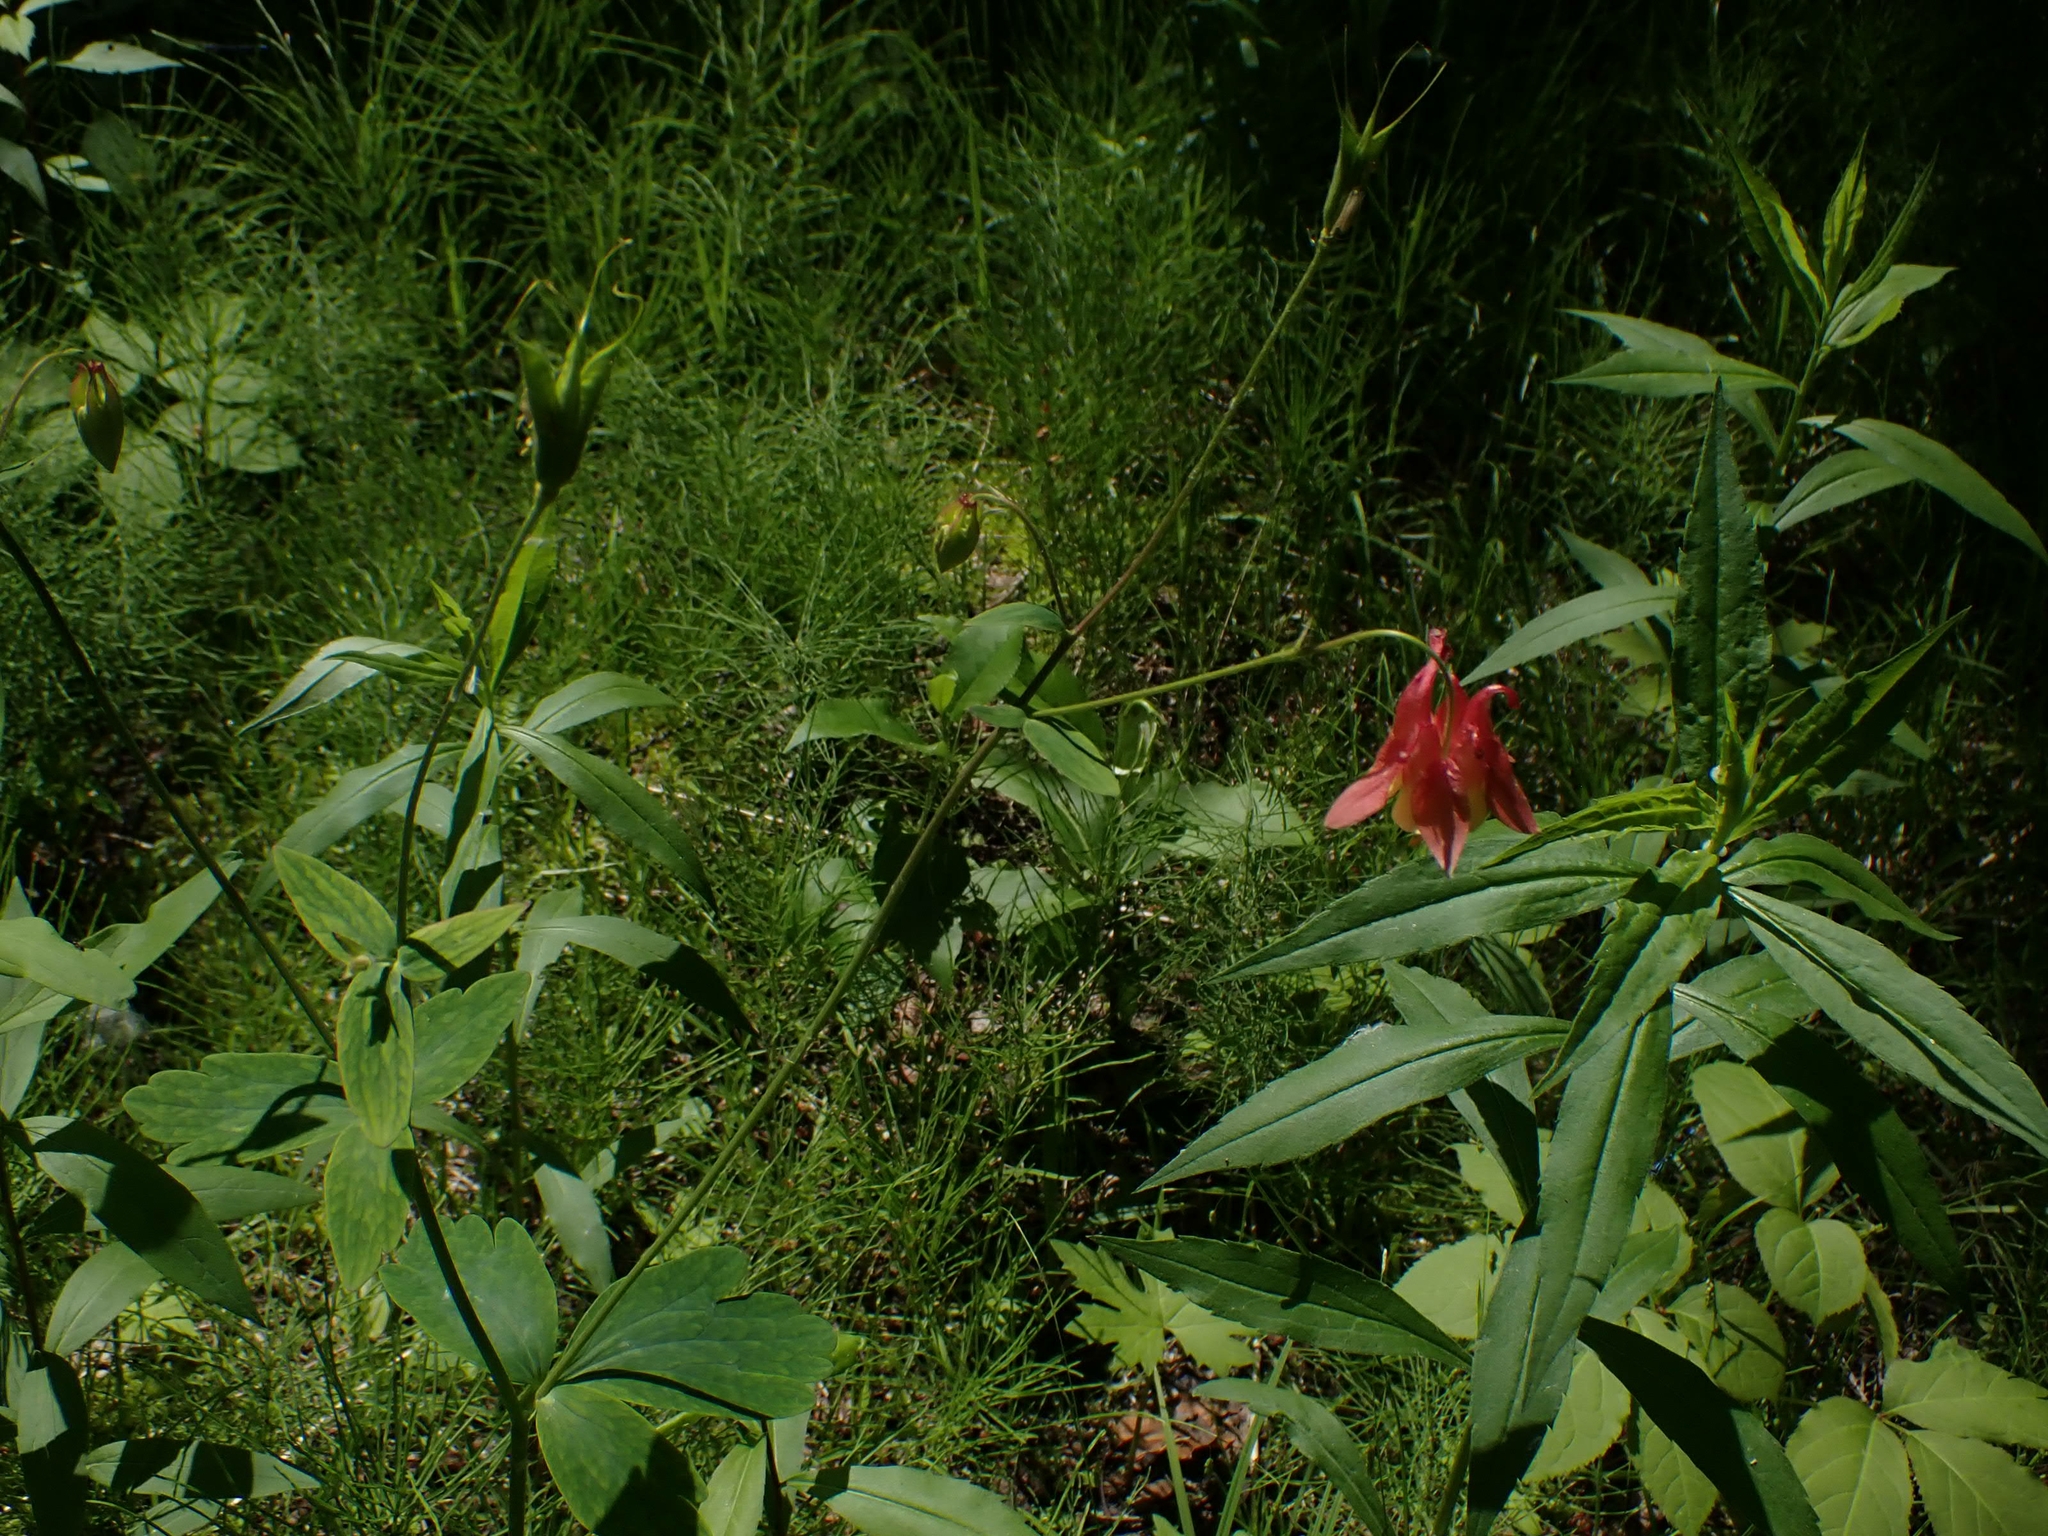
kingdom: Plantae
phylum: Tracheophyta
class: Magnoliopsida
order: Ranunculales
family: Ranunculaceae
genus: Aquilegia
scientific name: Aquilegia canadensis
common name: American columbine
